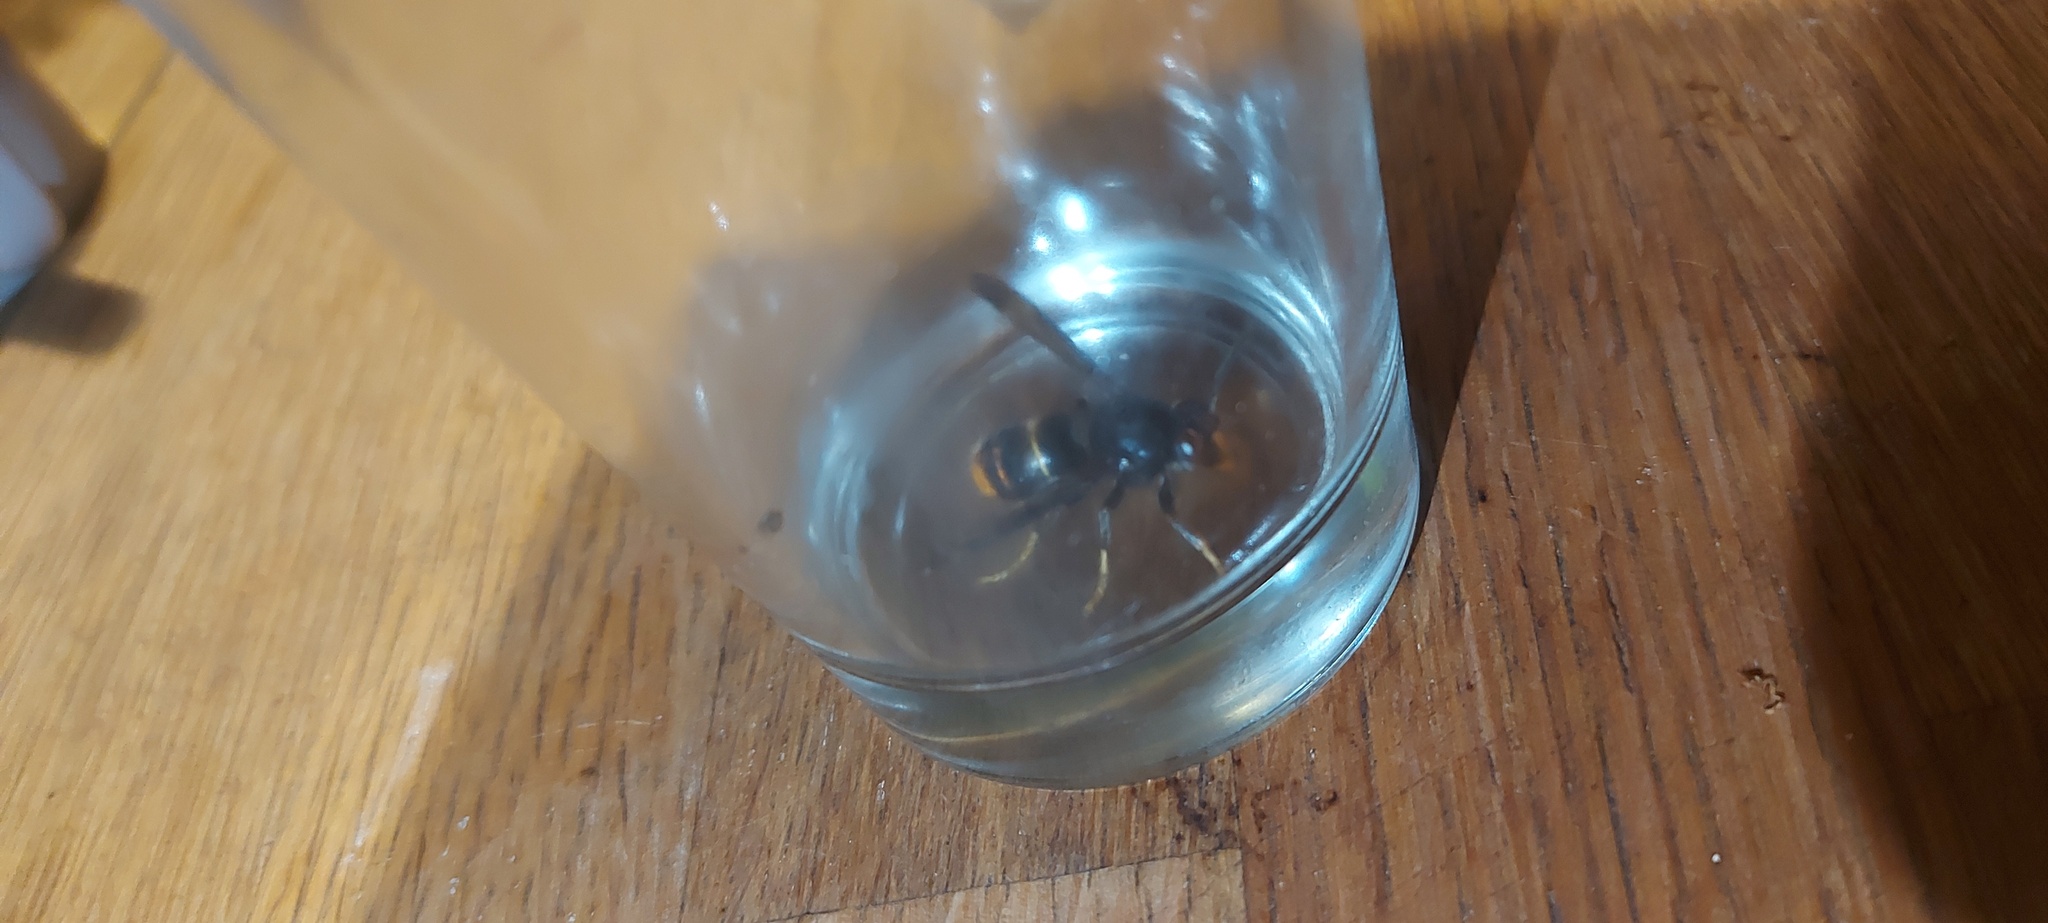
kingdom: Animalia
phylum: Arthropoda
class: Insecta
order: Hymenoptera
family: Vespidae
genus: Vespa
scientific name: Vespa velutina
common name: Asian hornet
